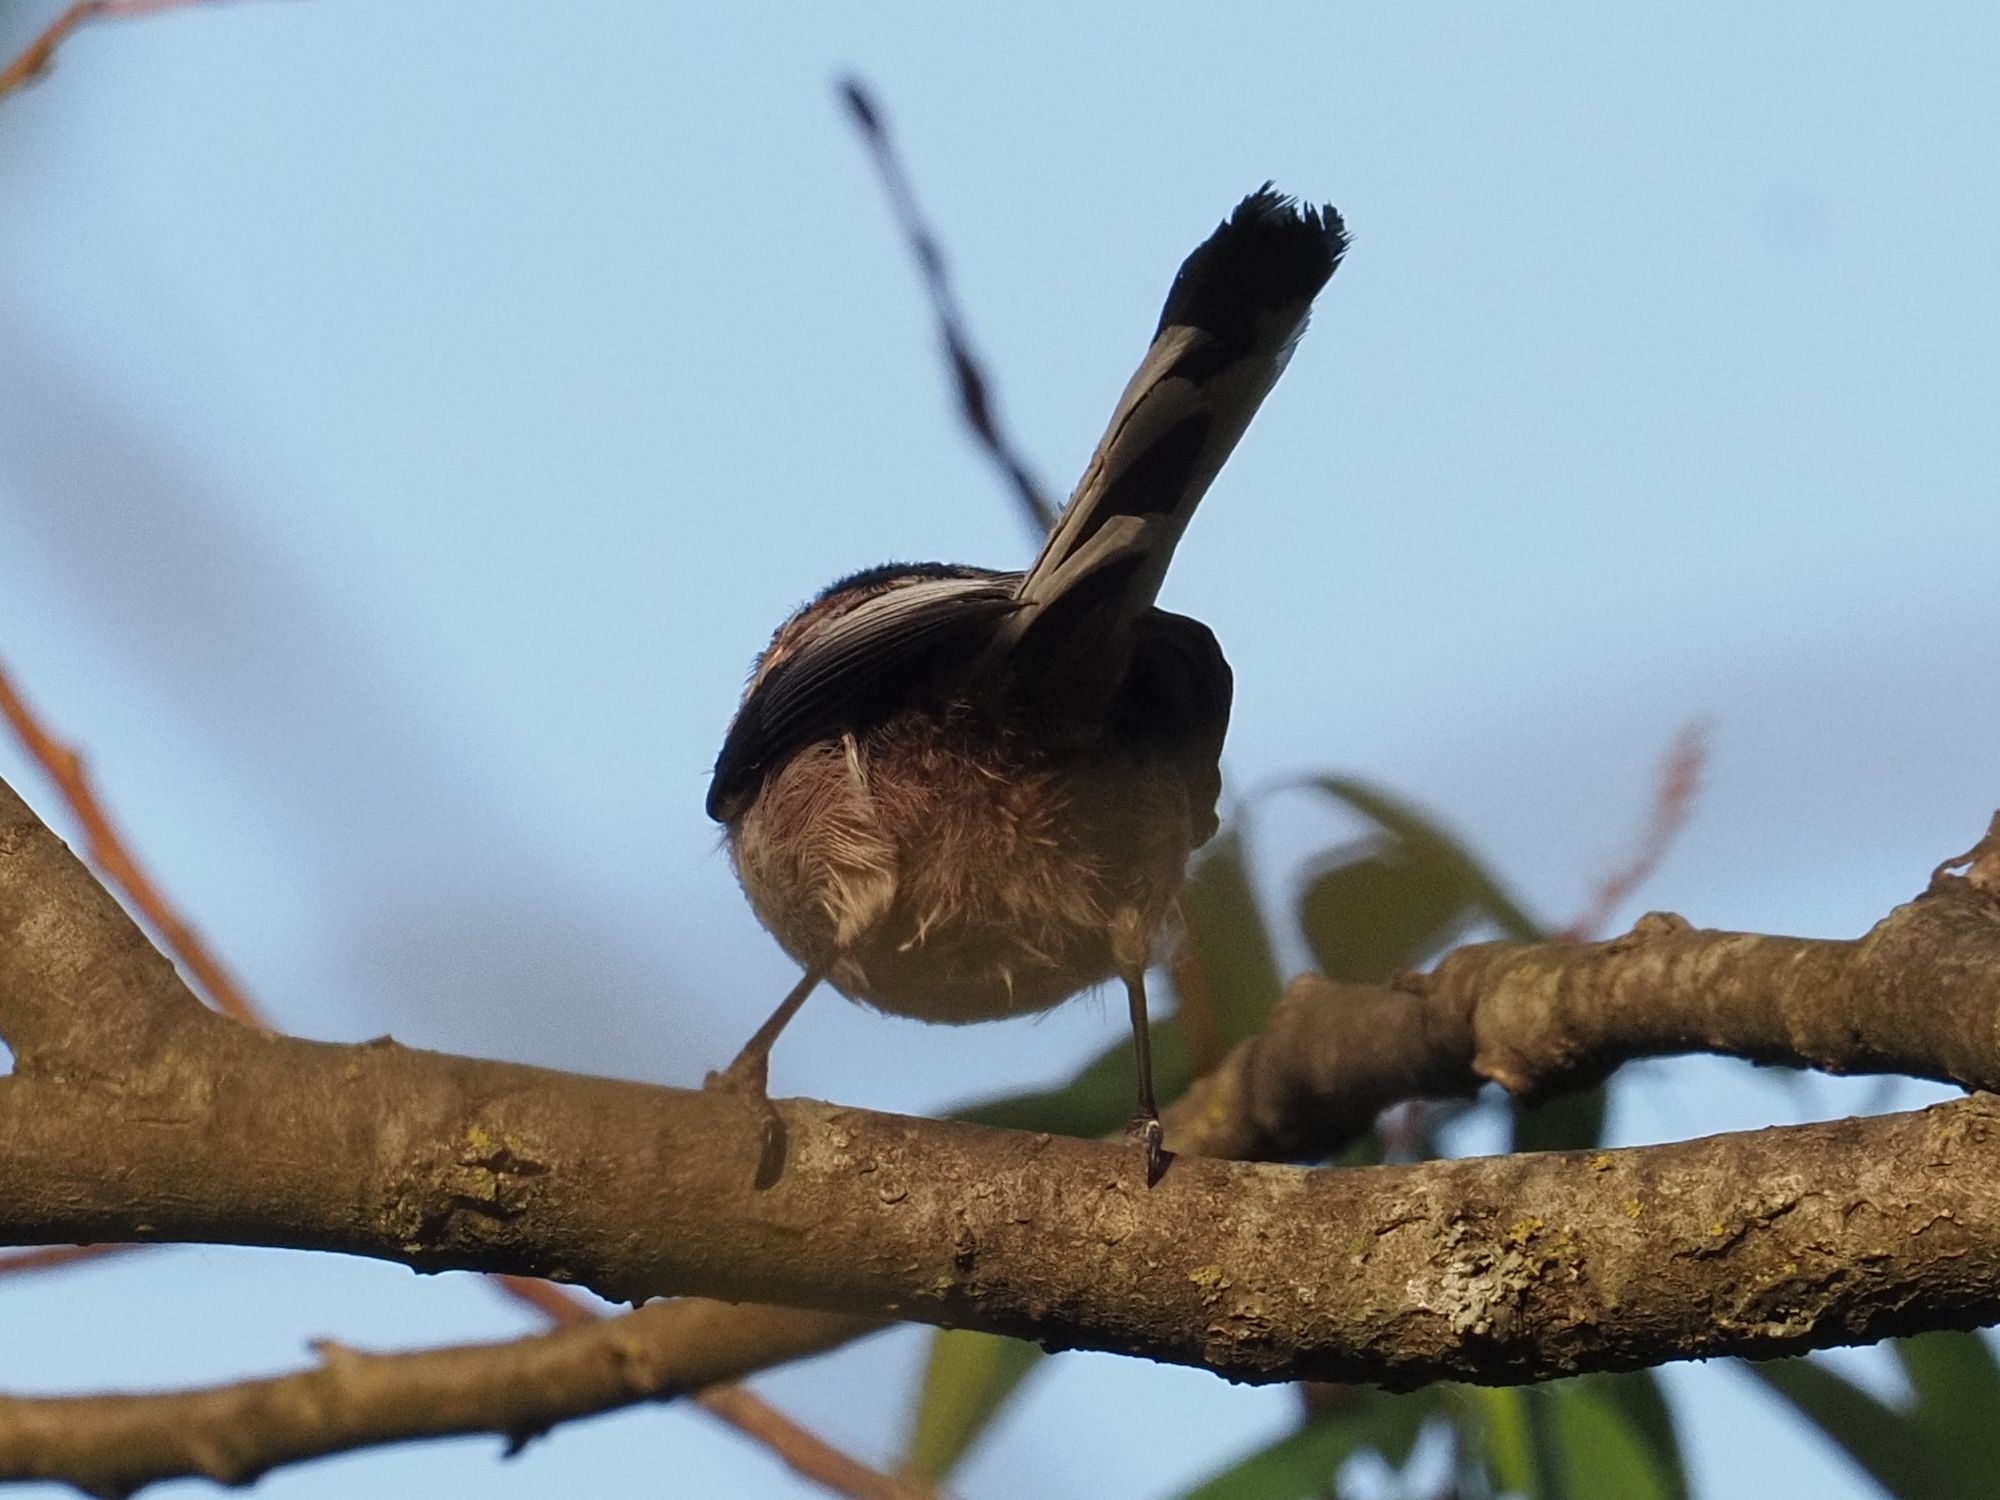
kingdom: Animalia
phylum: Chordata
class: Aves
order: Passeriformes
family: Aegithalidae
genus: Aegithalos
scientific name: Aegithalos caudatus
